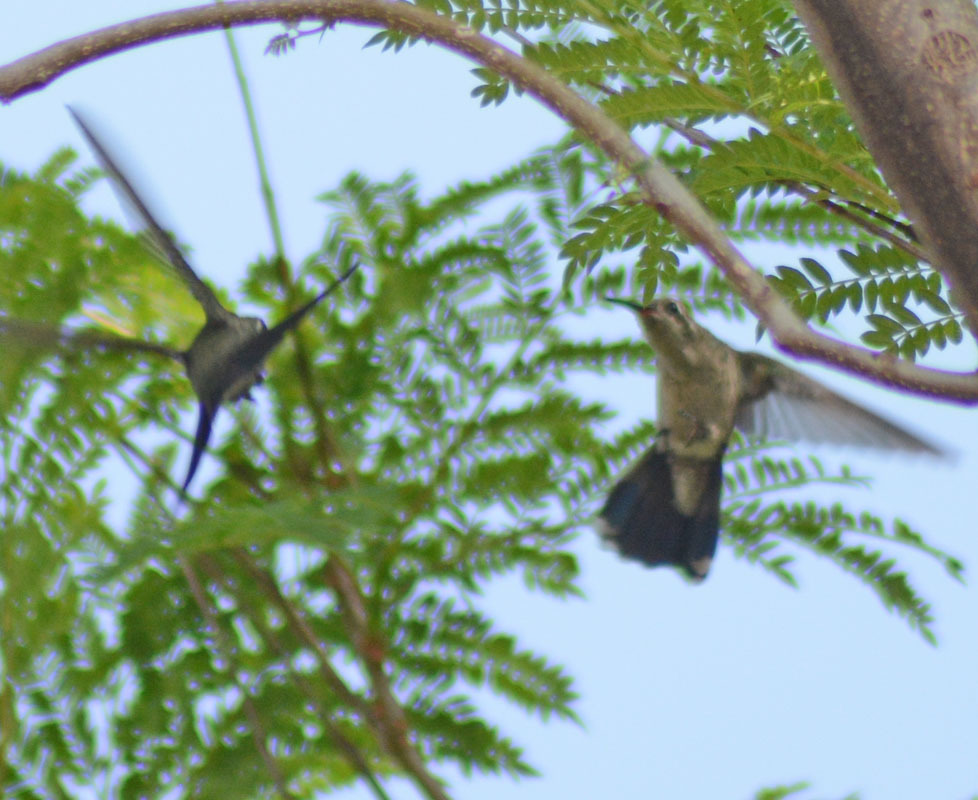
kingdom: Animalia
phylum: Chordata
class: Aves
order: Apodiformes
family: Trochilidae
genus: Cynanthus
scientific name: Cynanthus latirostris
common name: Broad-billed hummingbird
